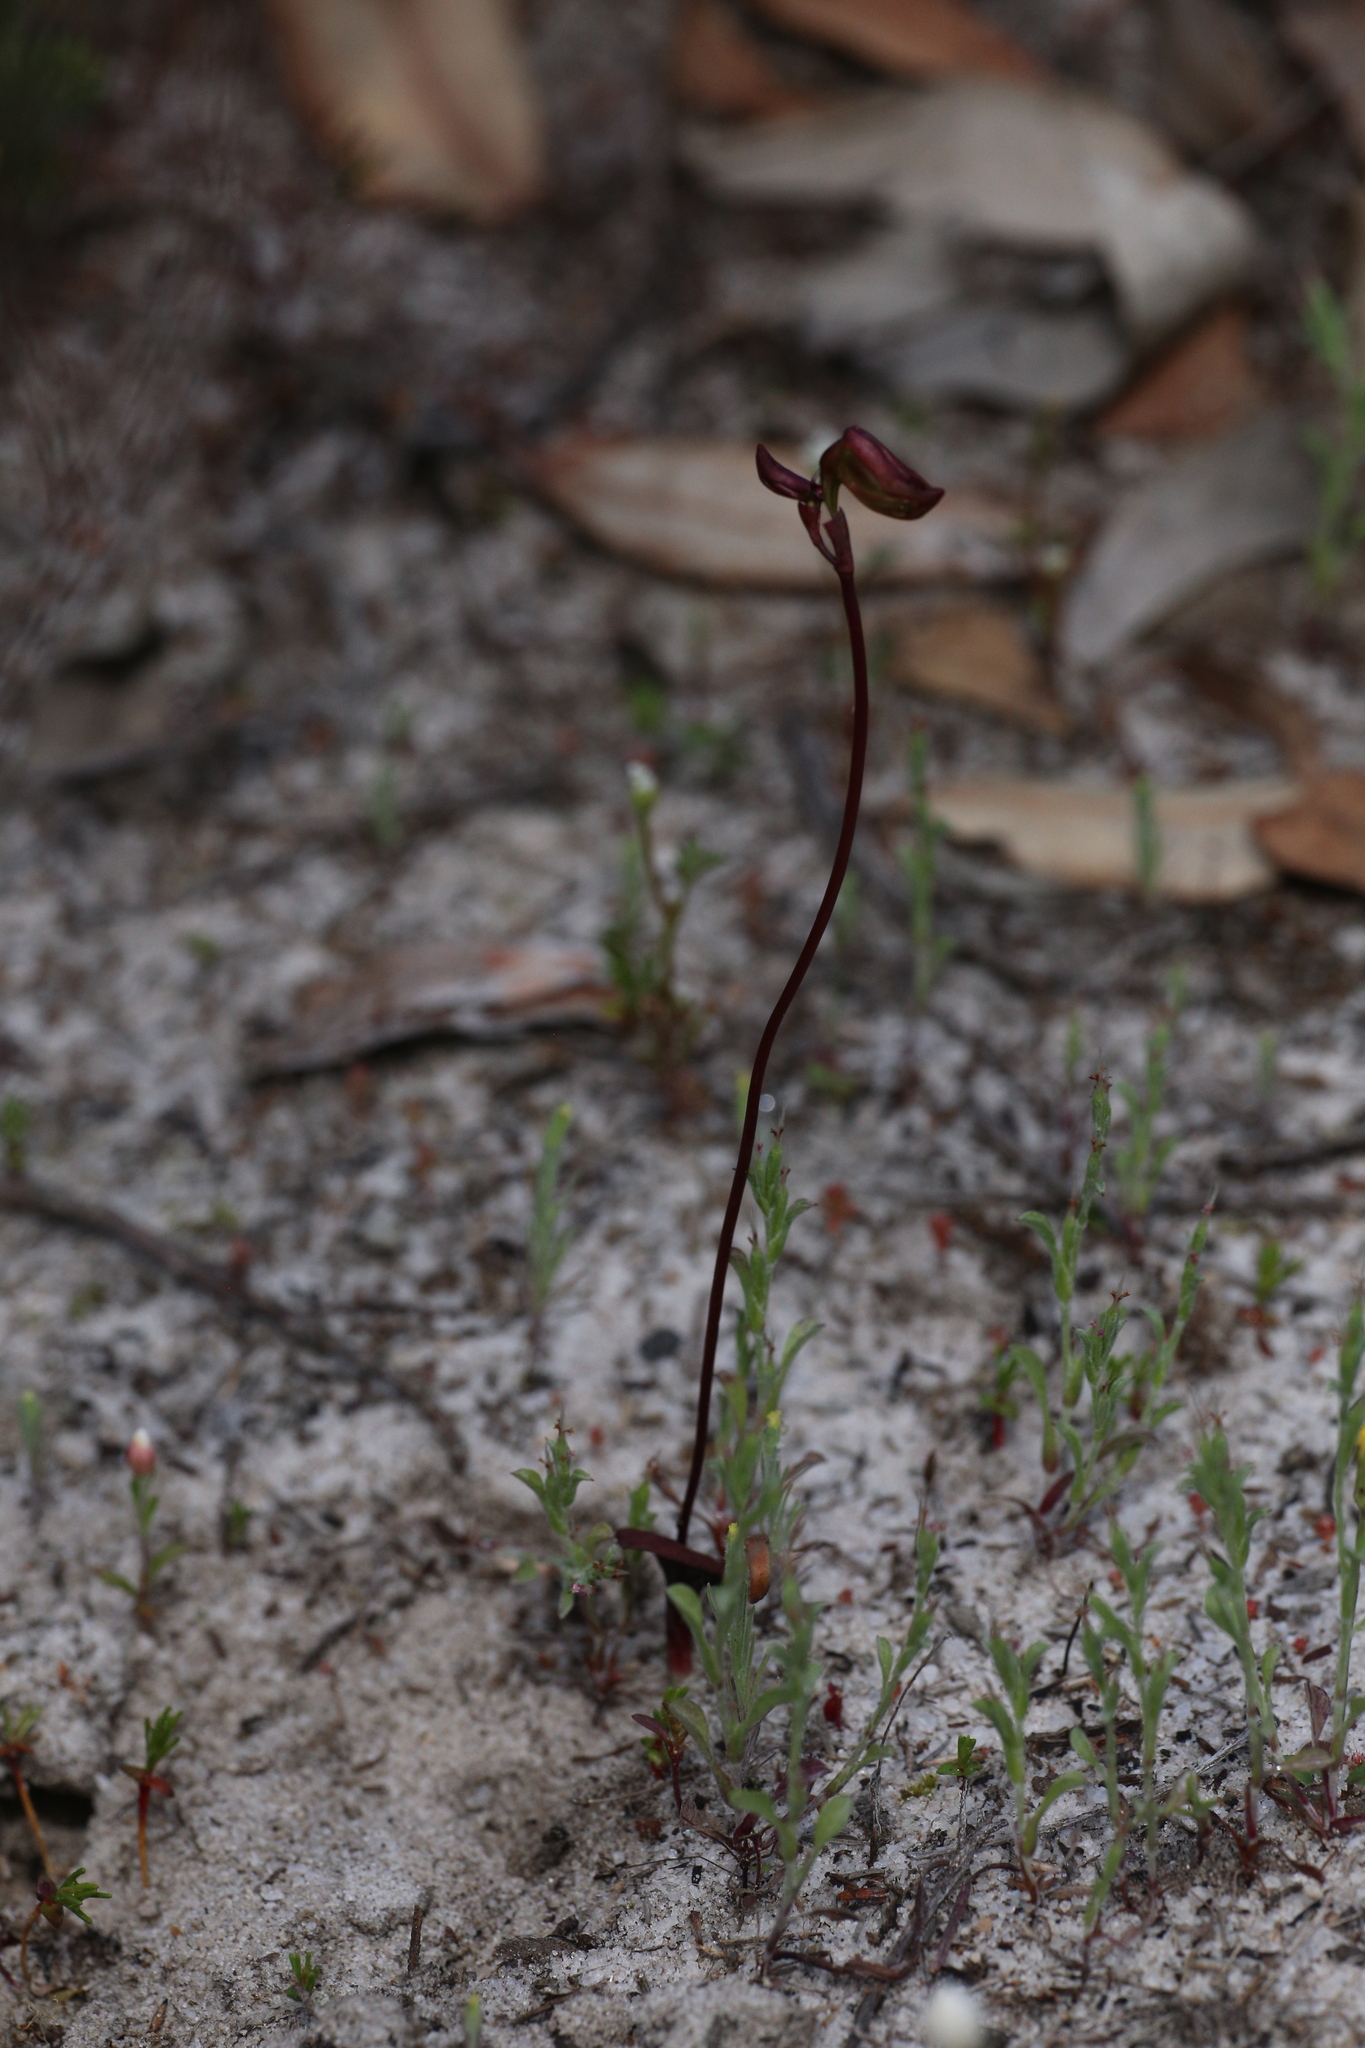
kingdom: Plantae
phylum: Tracheophyta
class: Liliopsida
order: Asparagales
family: Orchidaceae
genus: Caleana
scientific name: Caleana nigrita
